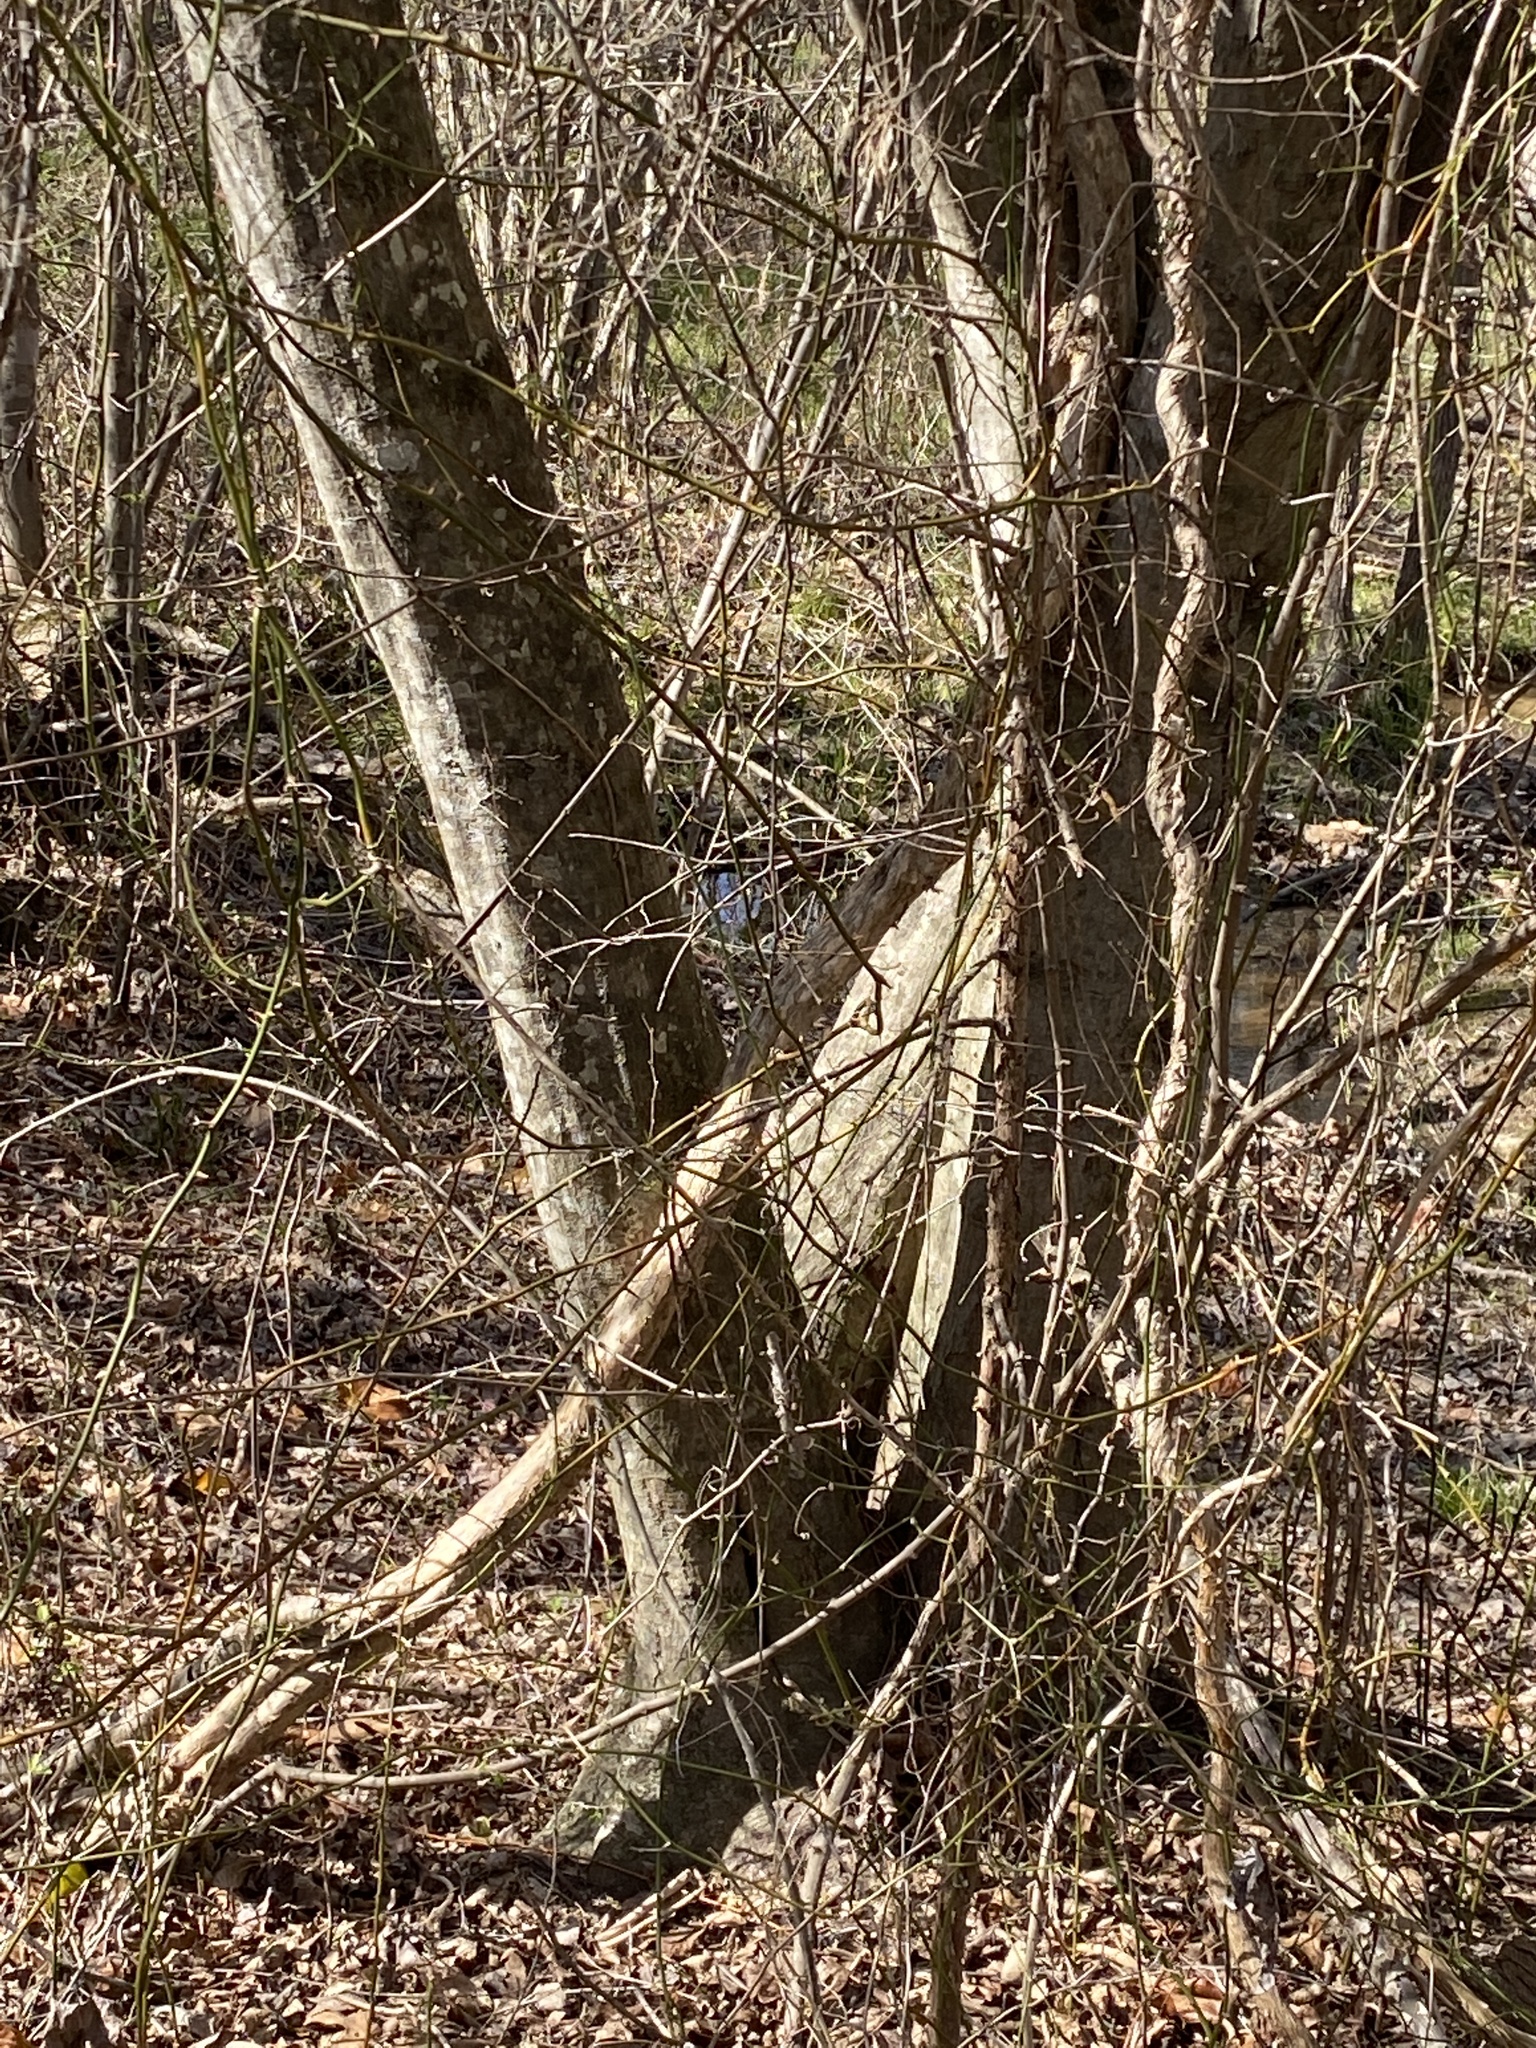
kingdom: Plantae
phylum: Tracheophyta
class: Magnoliopsida
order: Fagales
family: Betulaceae
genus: Carpinus
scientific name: Carpinus caroliniana
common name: American hornbeam
